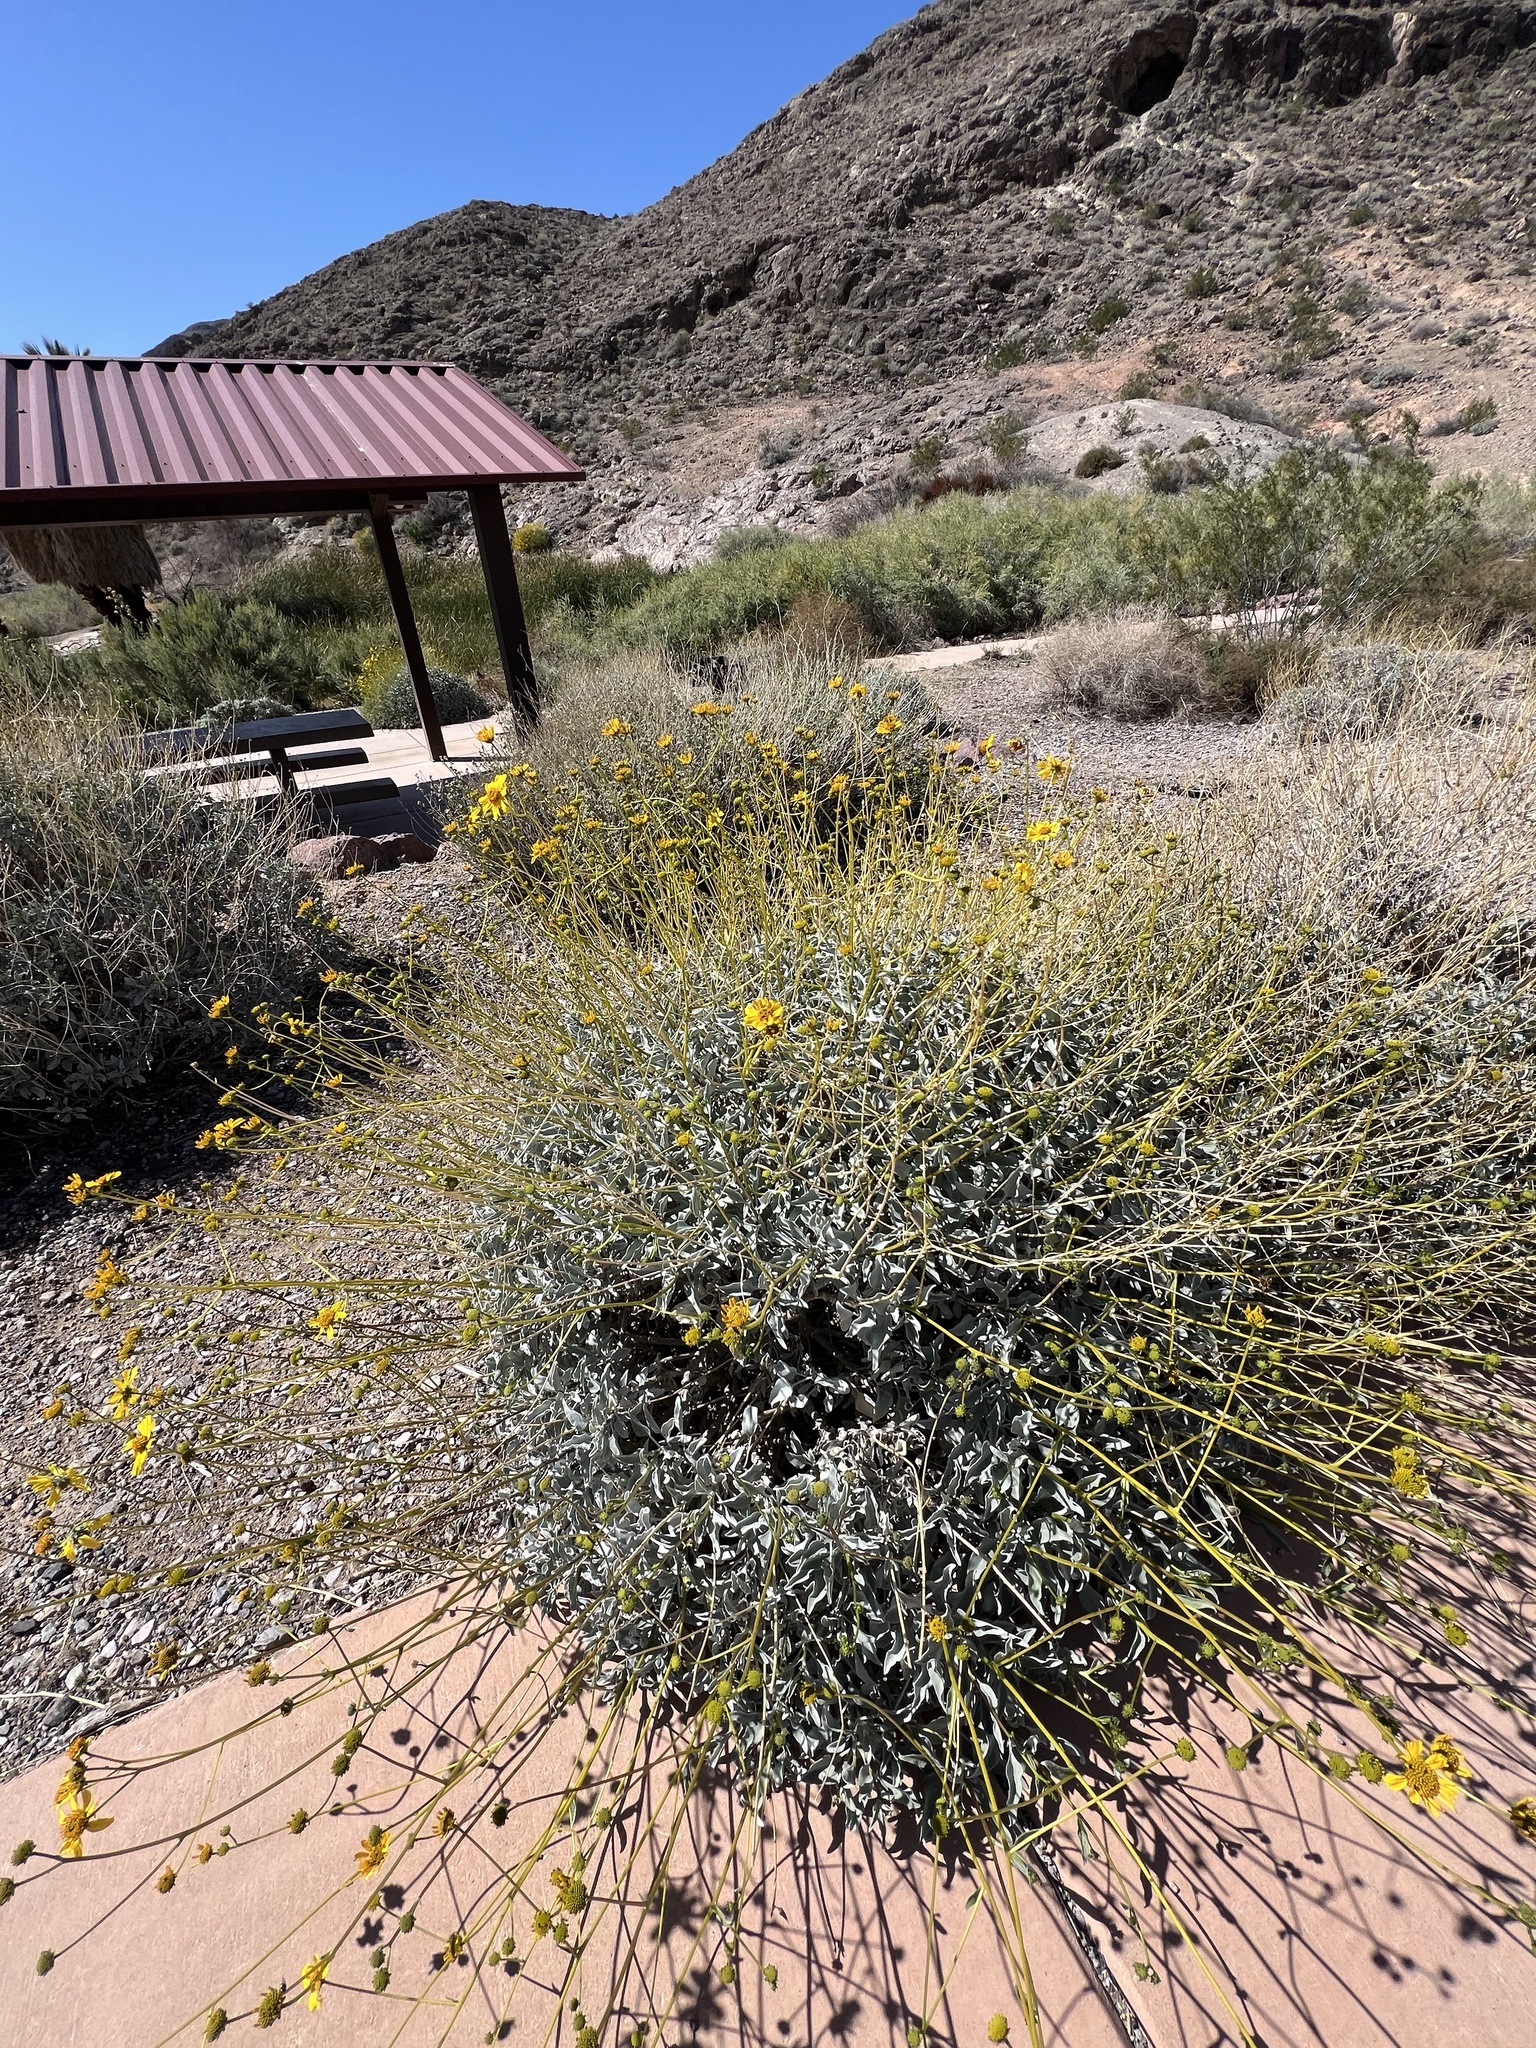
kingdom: Plantae
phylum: Tracheophyta
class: Magnoliopsida
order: Asterales
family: Asteraceae
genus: Encelia
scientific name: Encelia farinosa
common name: Brittlebush
